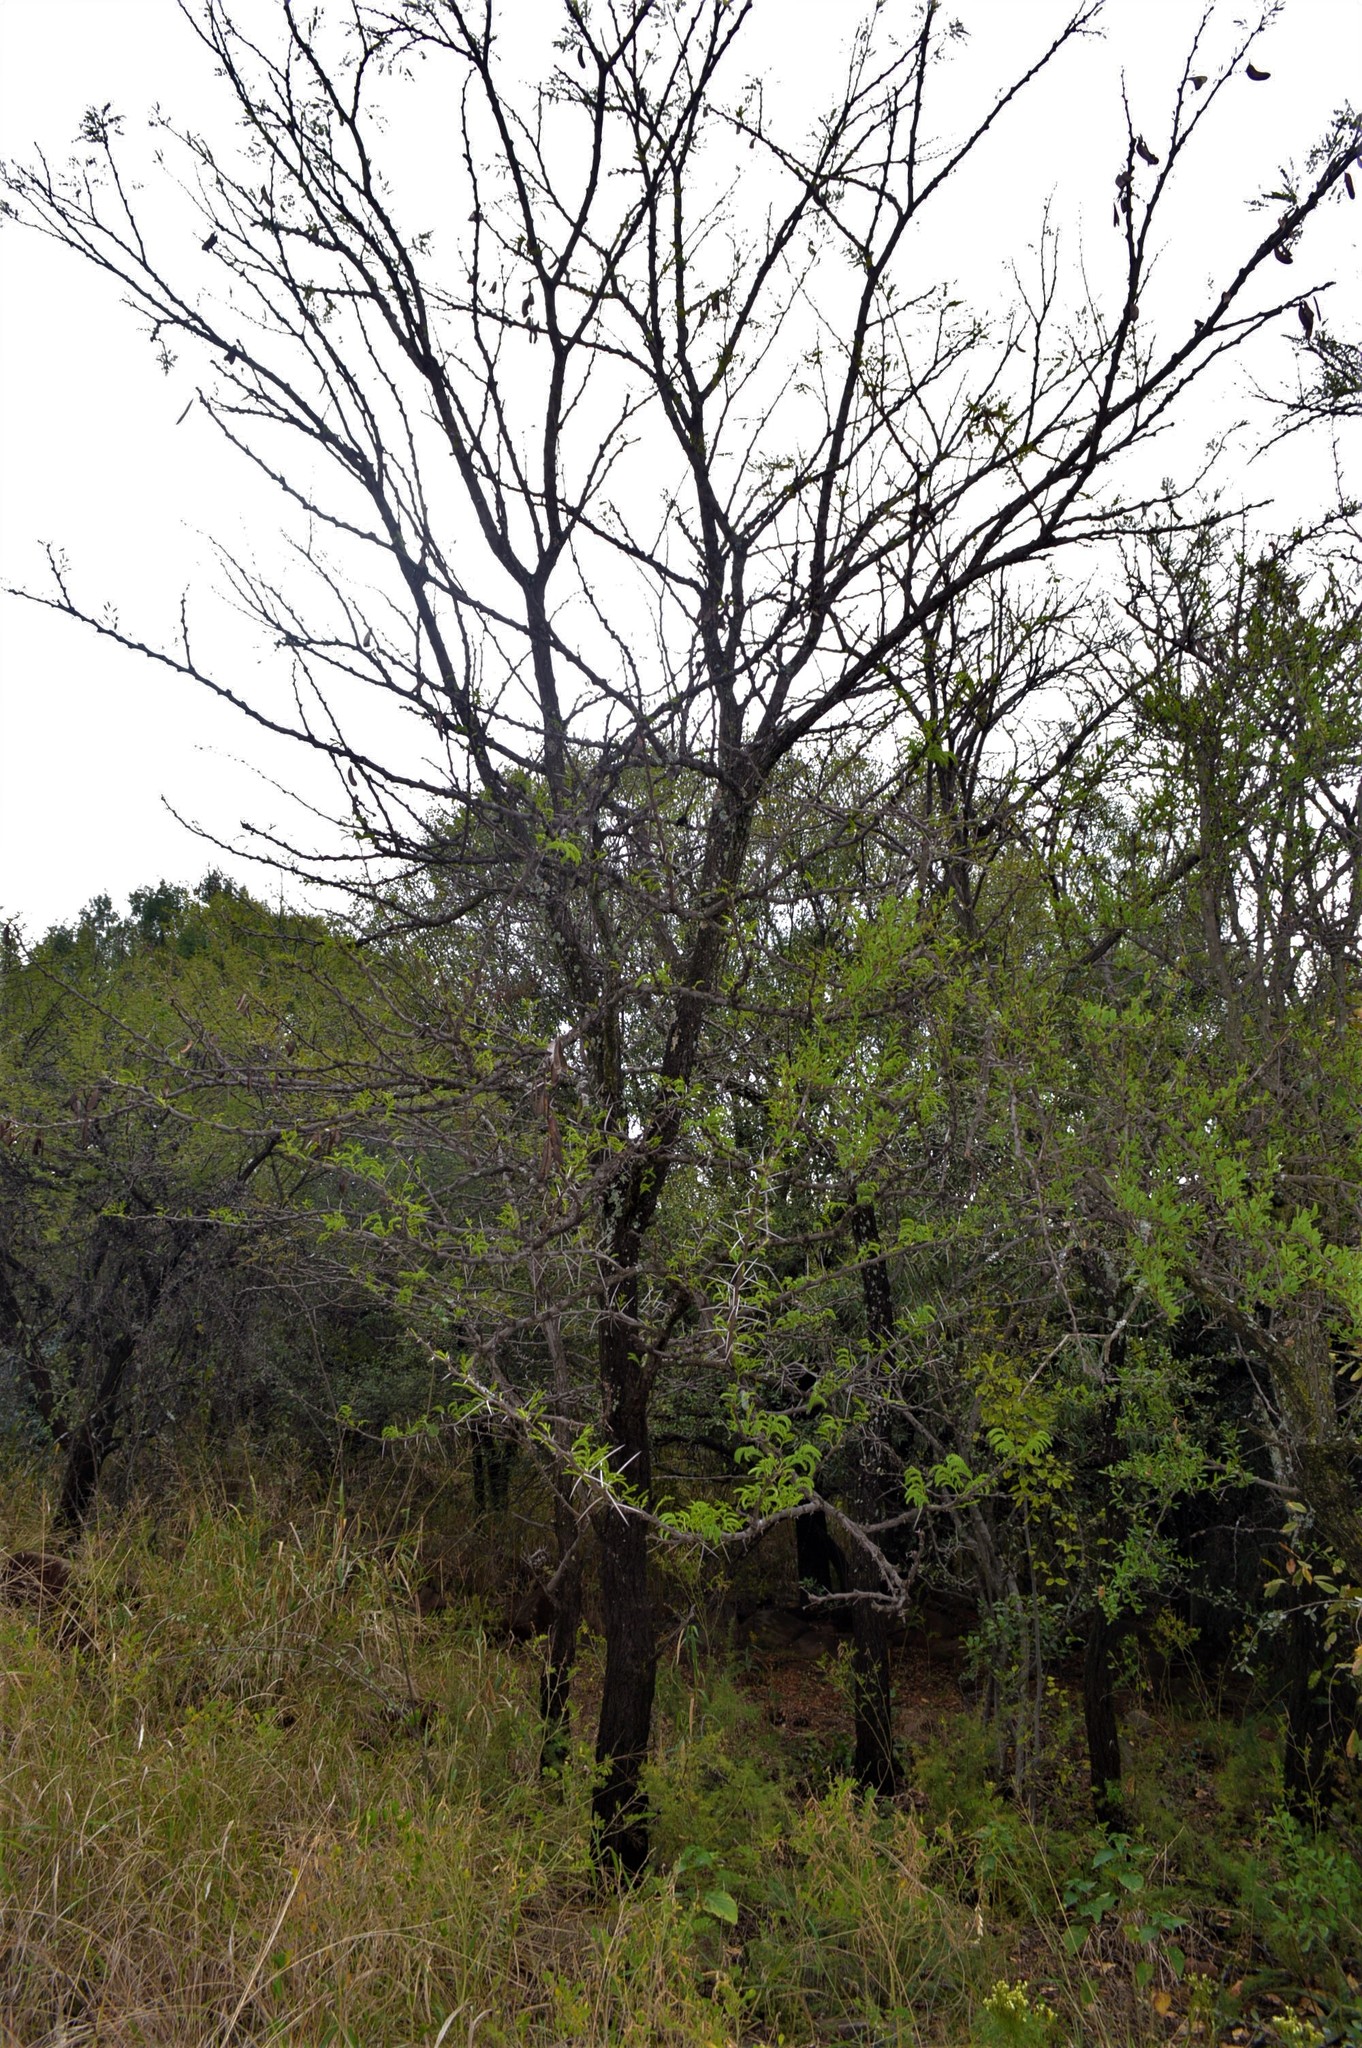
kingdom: Plantae
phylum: Tracheophyta
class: Magnoliopsida
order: Fabales
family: Fabaceae
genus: Vachellia
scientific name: Vachellia robusta
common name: Ankle thorn
